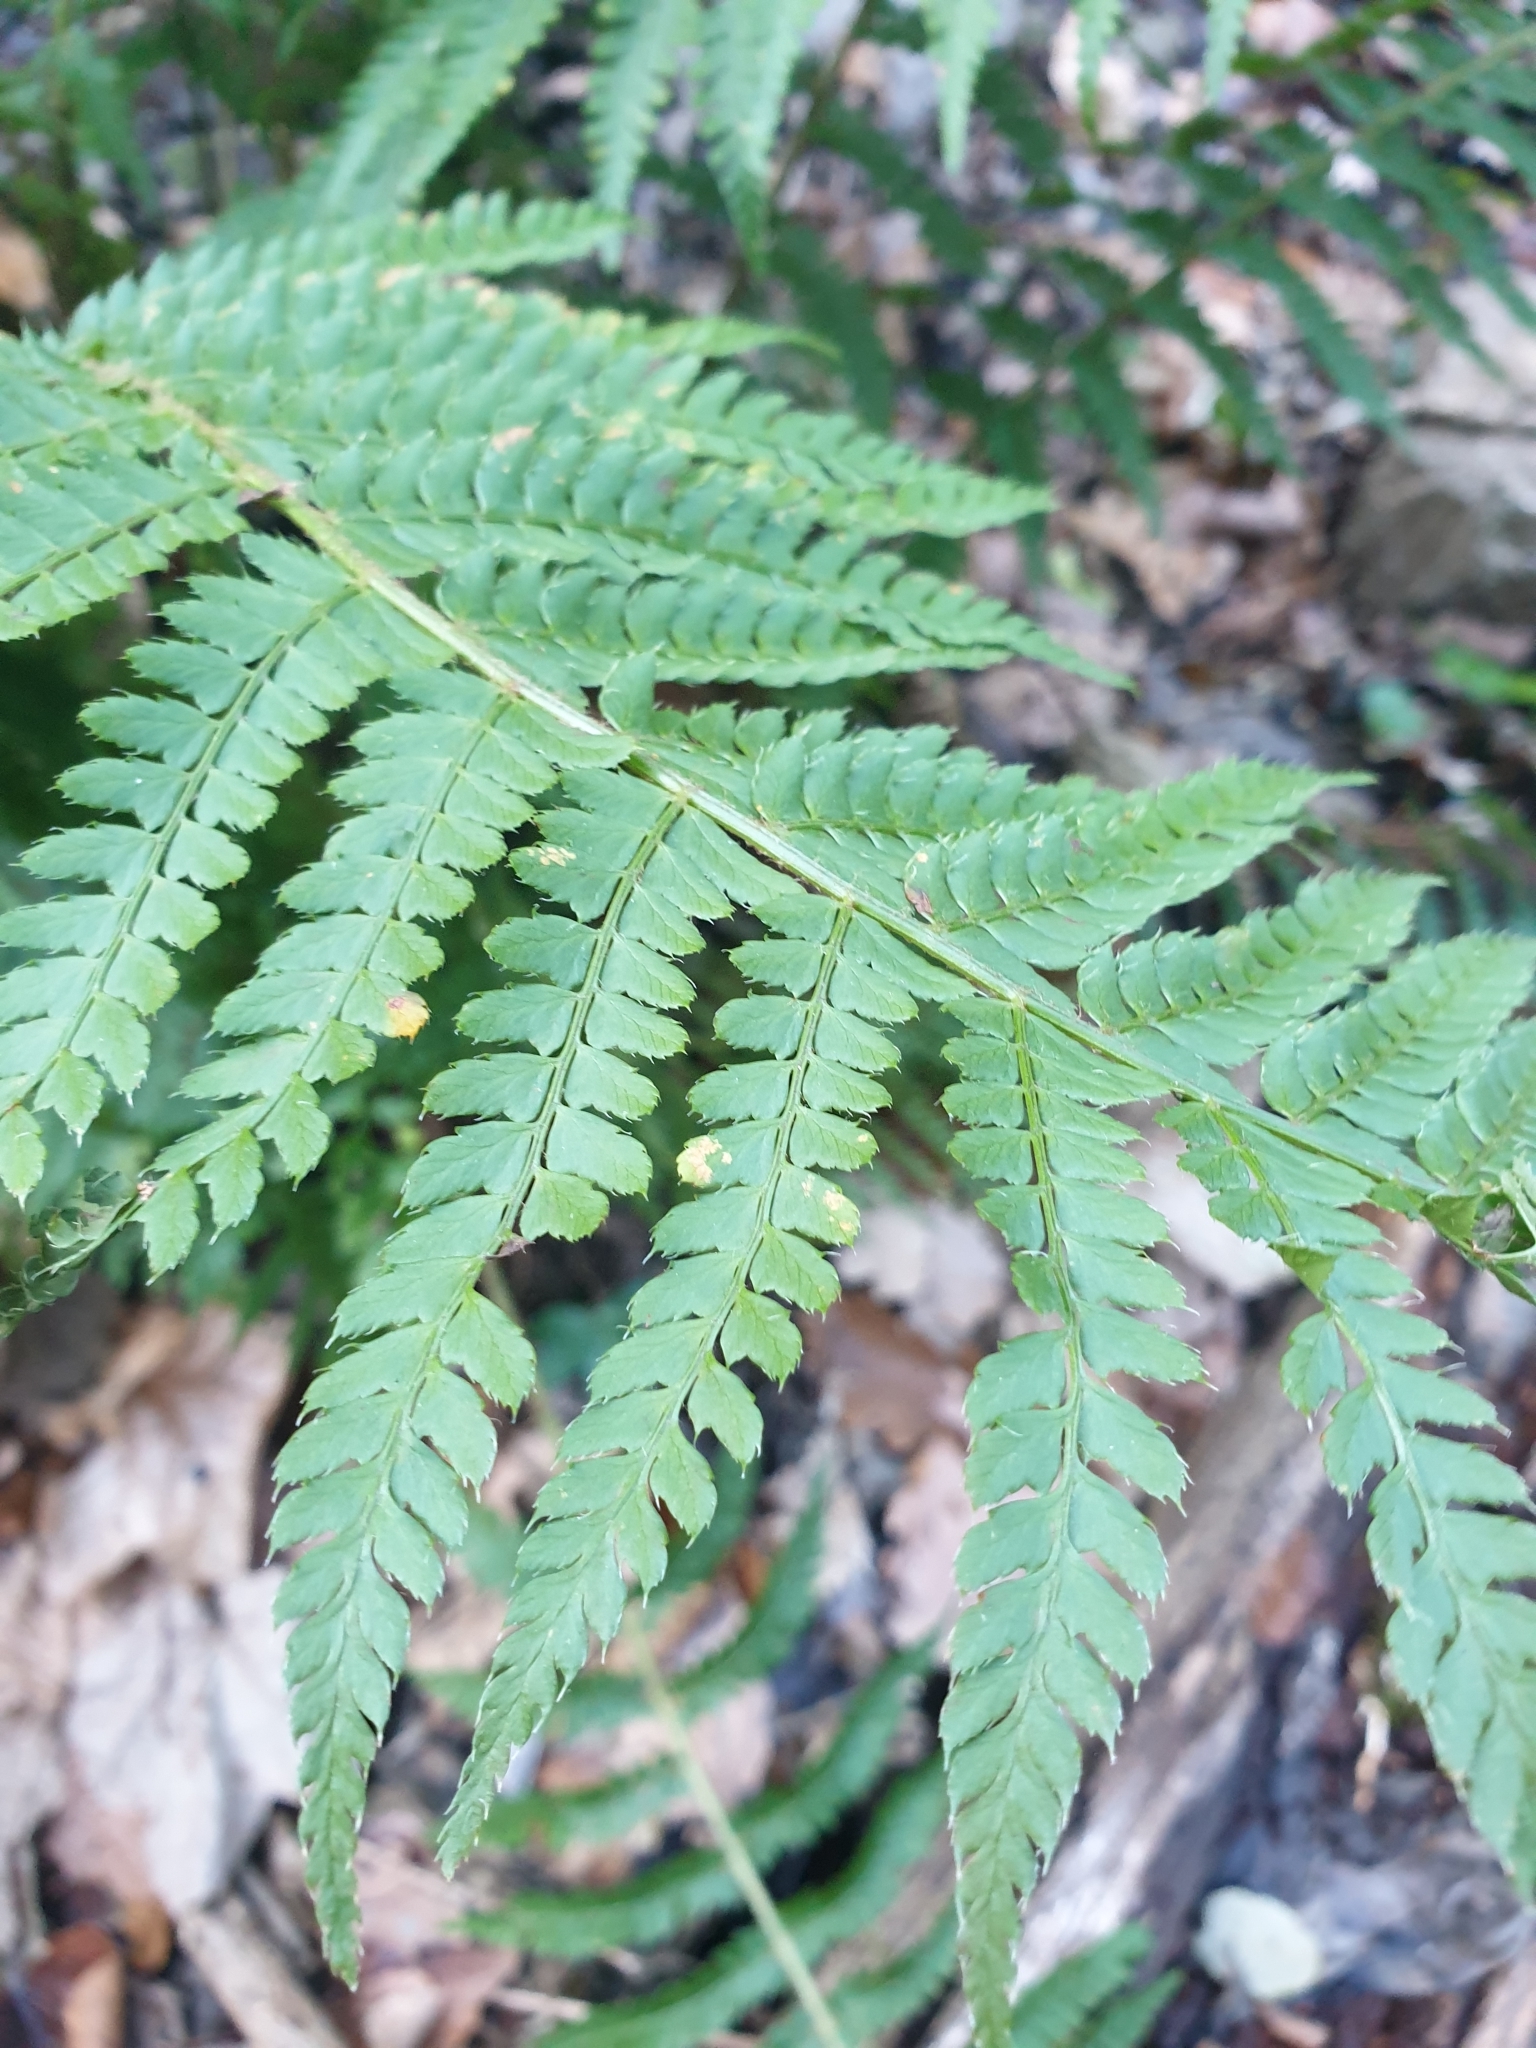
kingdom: Plantae
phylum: Tracheophyta
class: Polypodiopsida
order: Polypodiales
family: Dryopteridaceae
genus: Polystichum
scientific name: Polystichum setiferum
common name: Soft shield-fern
